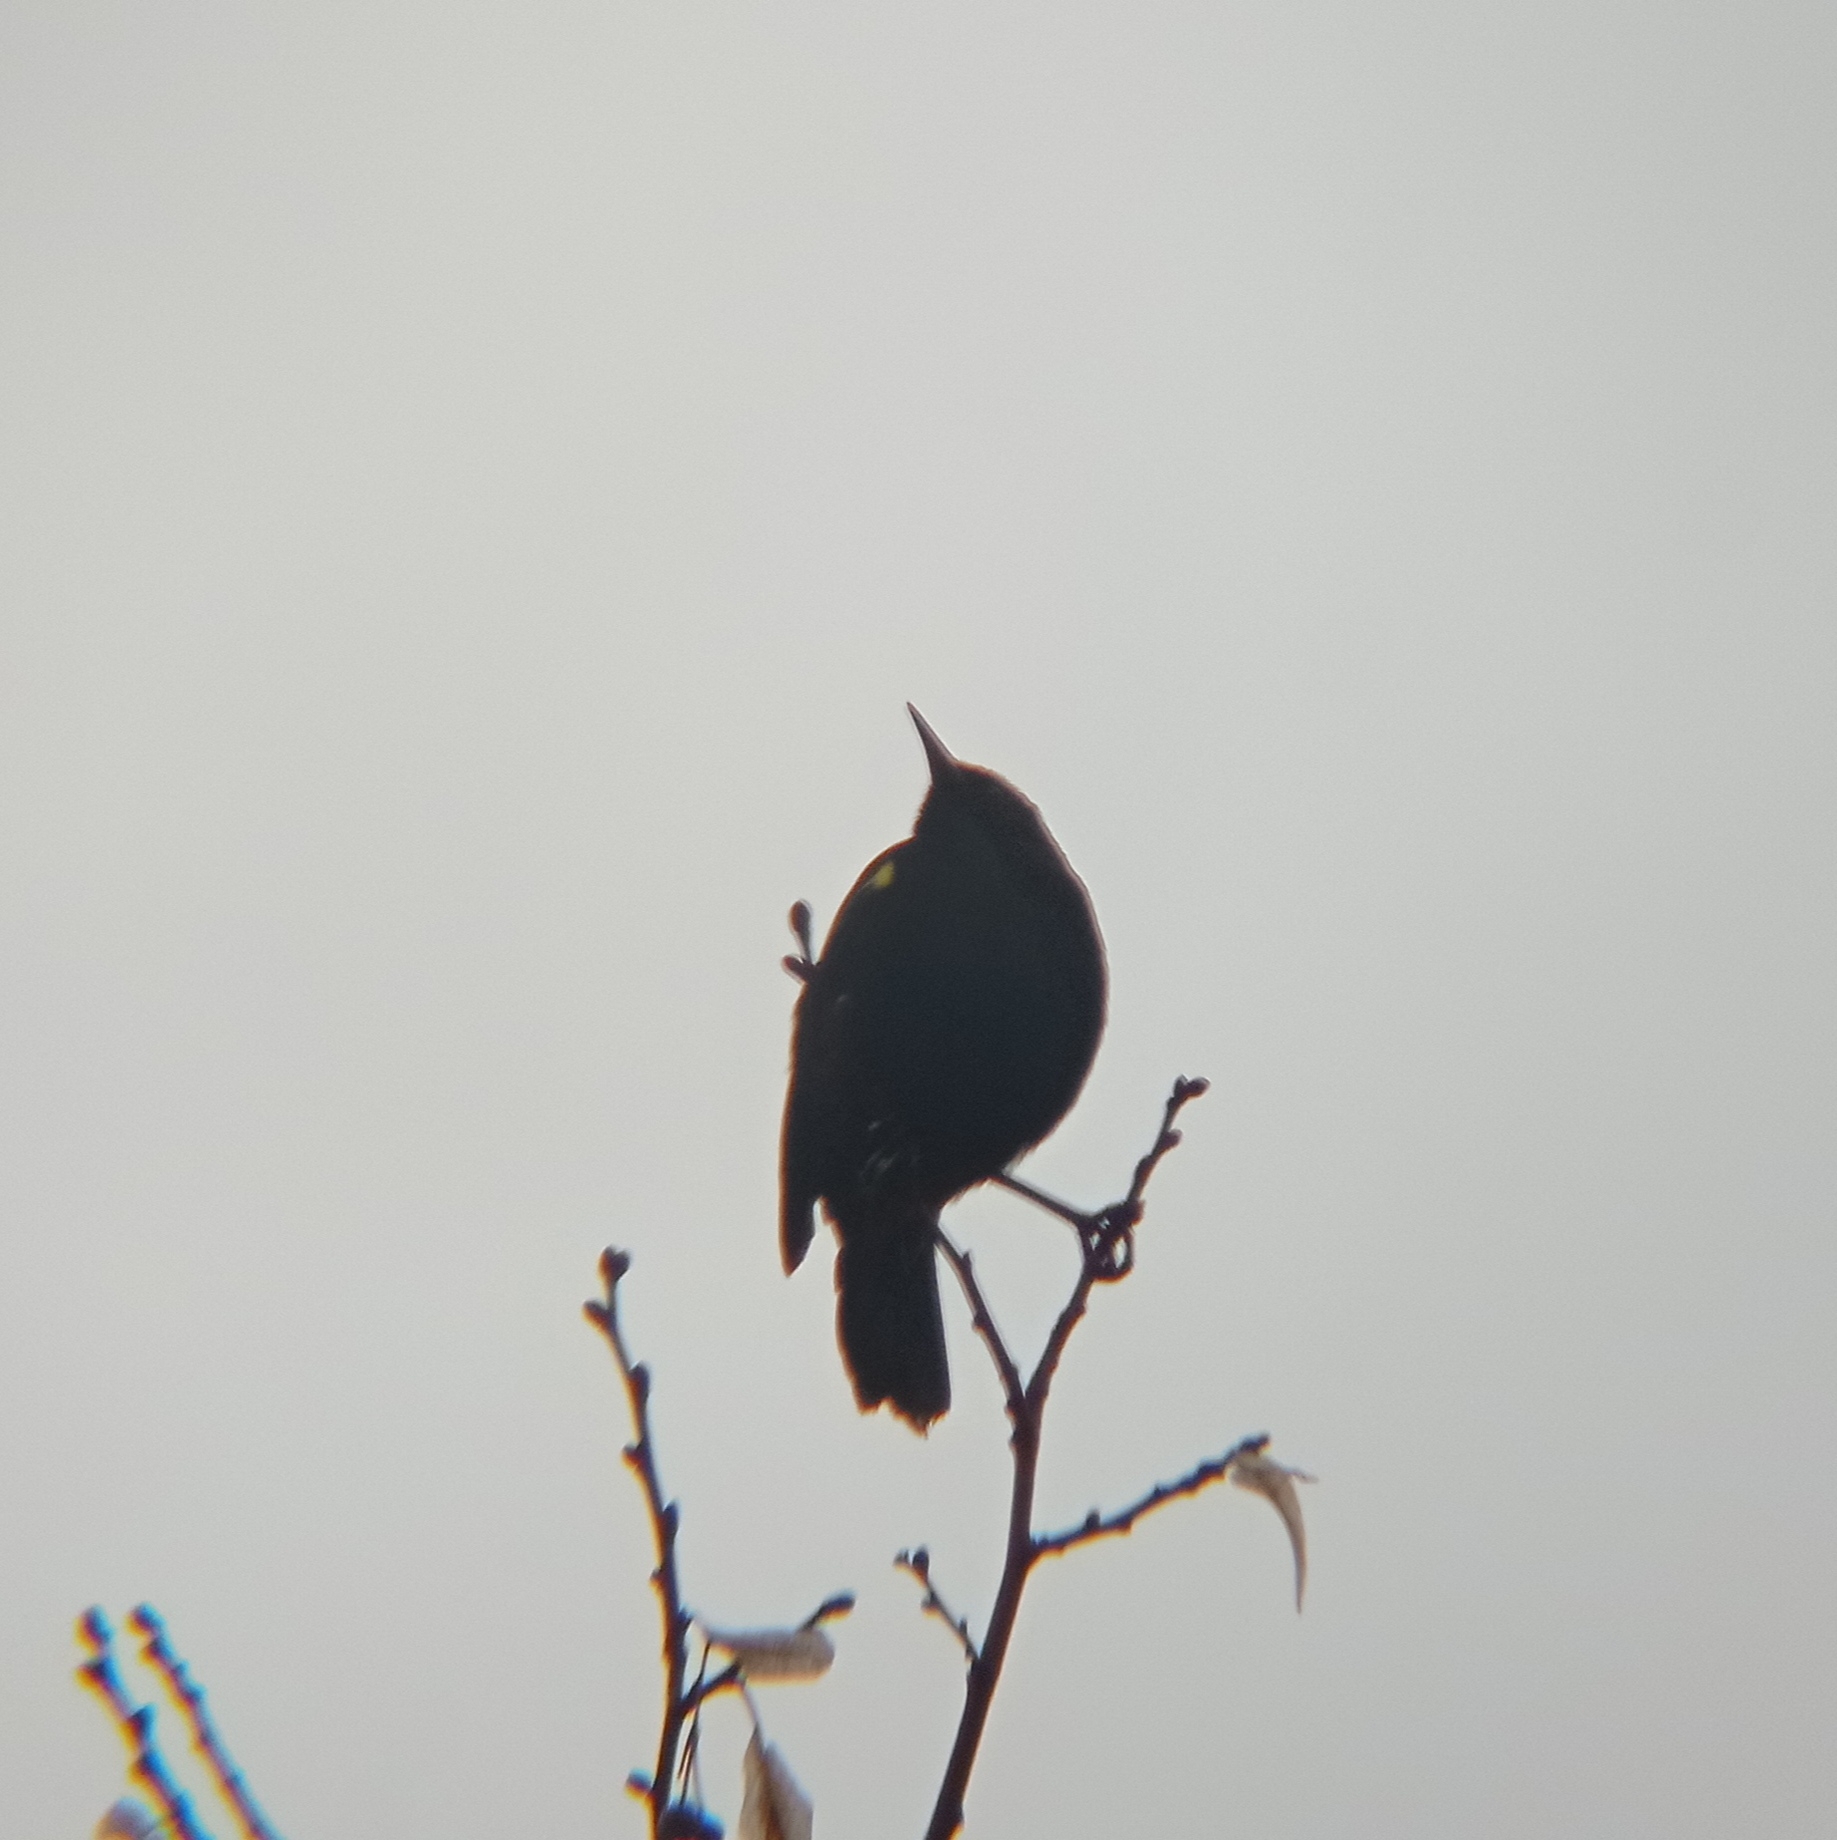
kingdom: Animalia
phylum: Chordata
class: Aves
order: Passeriformes
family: Icteridae
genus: Agelasticus
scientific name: Agelasticus thilius
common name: Yellow-winged blackbird
